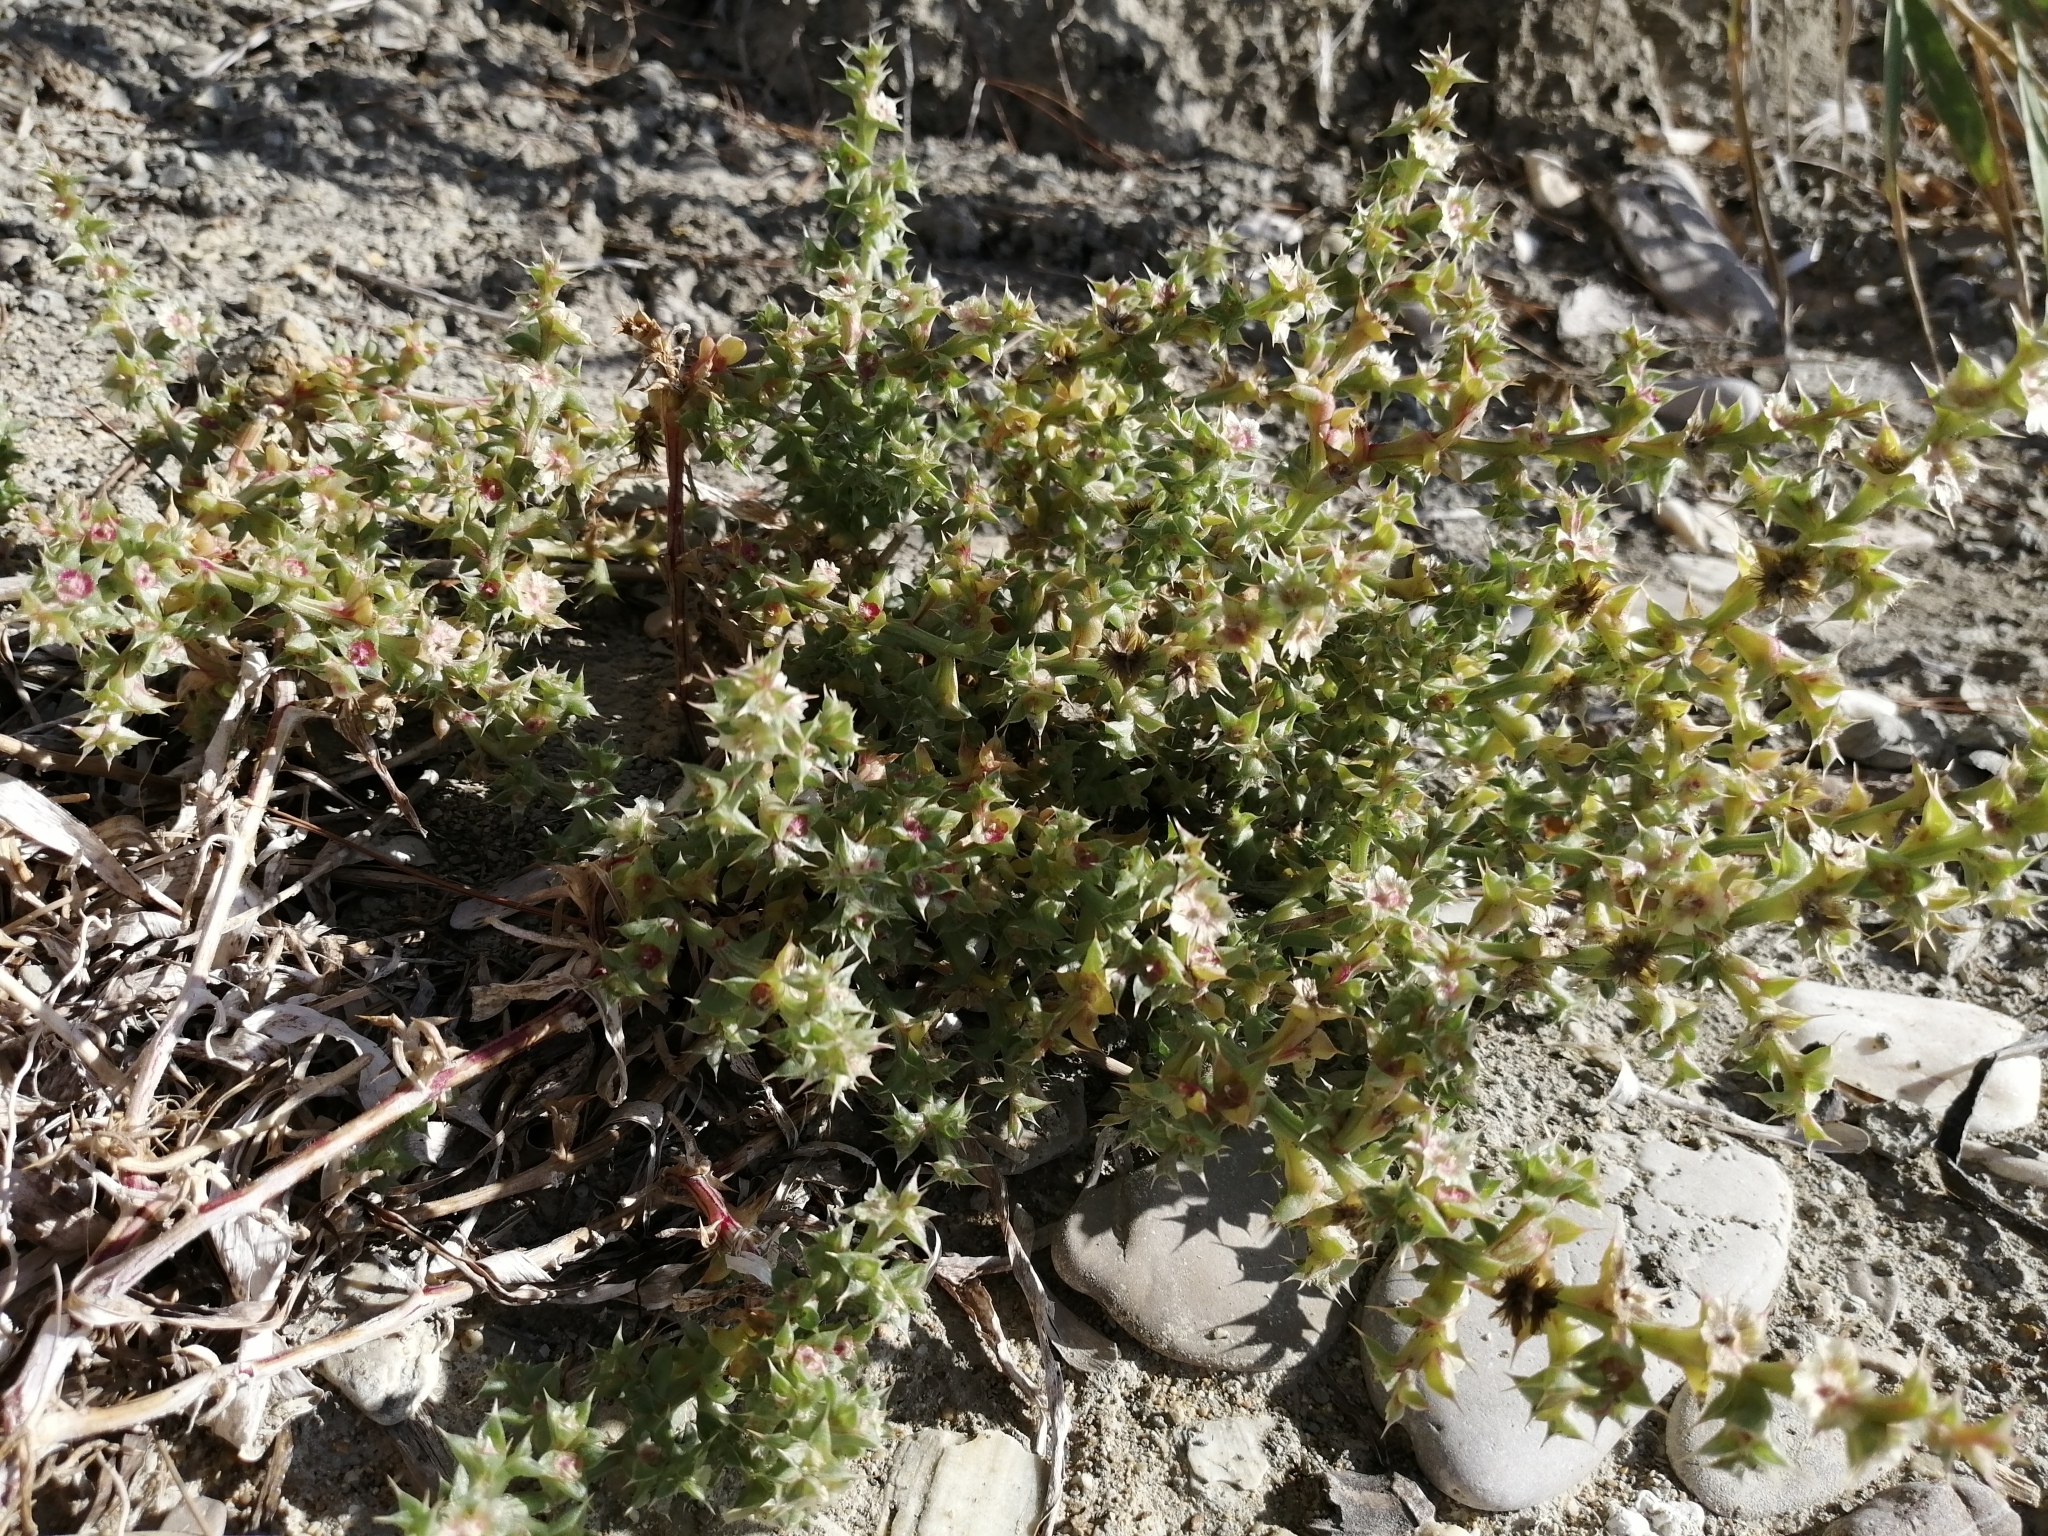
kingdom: Plantae
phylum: Tracheophyta
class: Magnoliopsida
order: Caryophyllales
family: Amaranthaceae
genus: Salsola
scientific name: Salsola kali
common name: Saltwort
